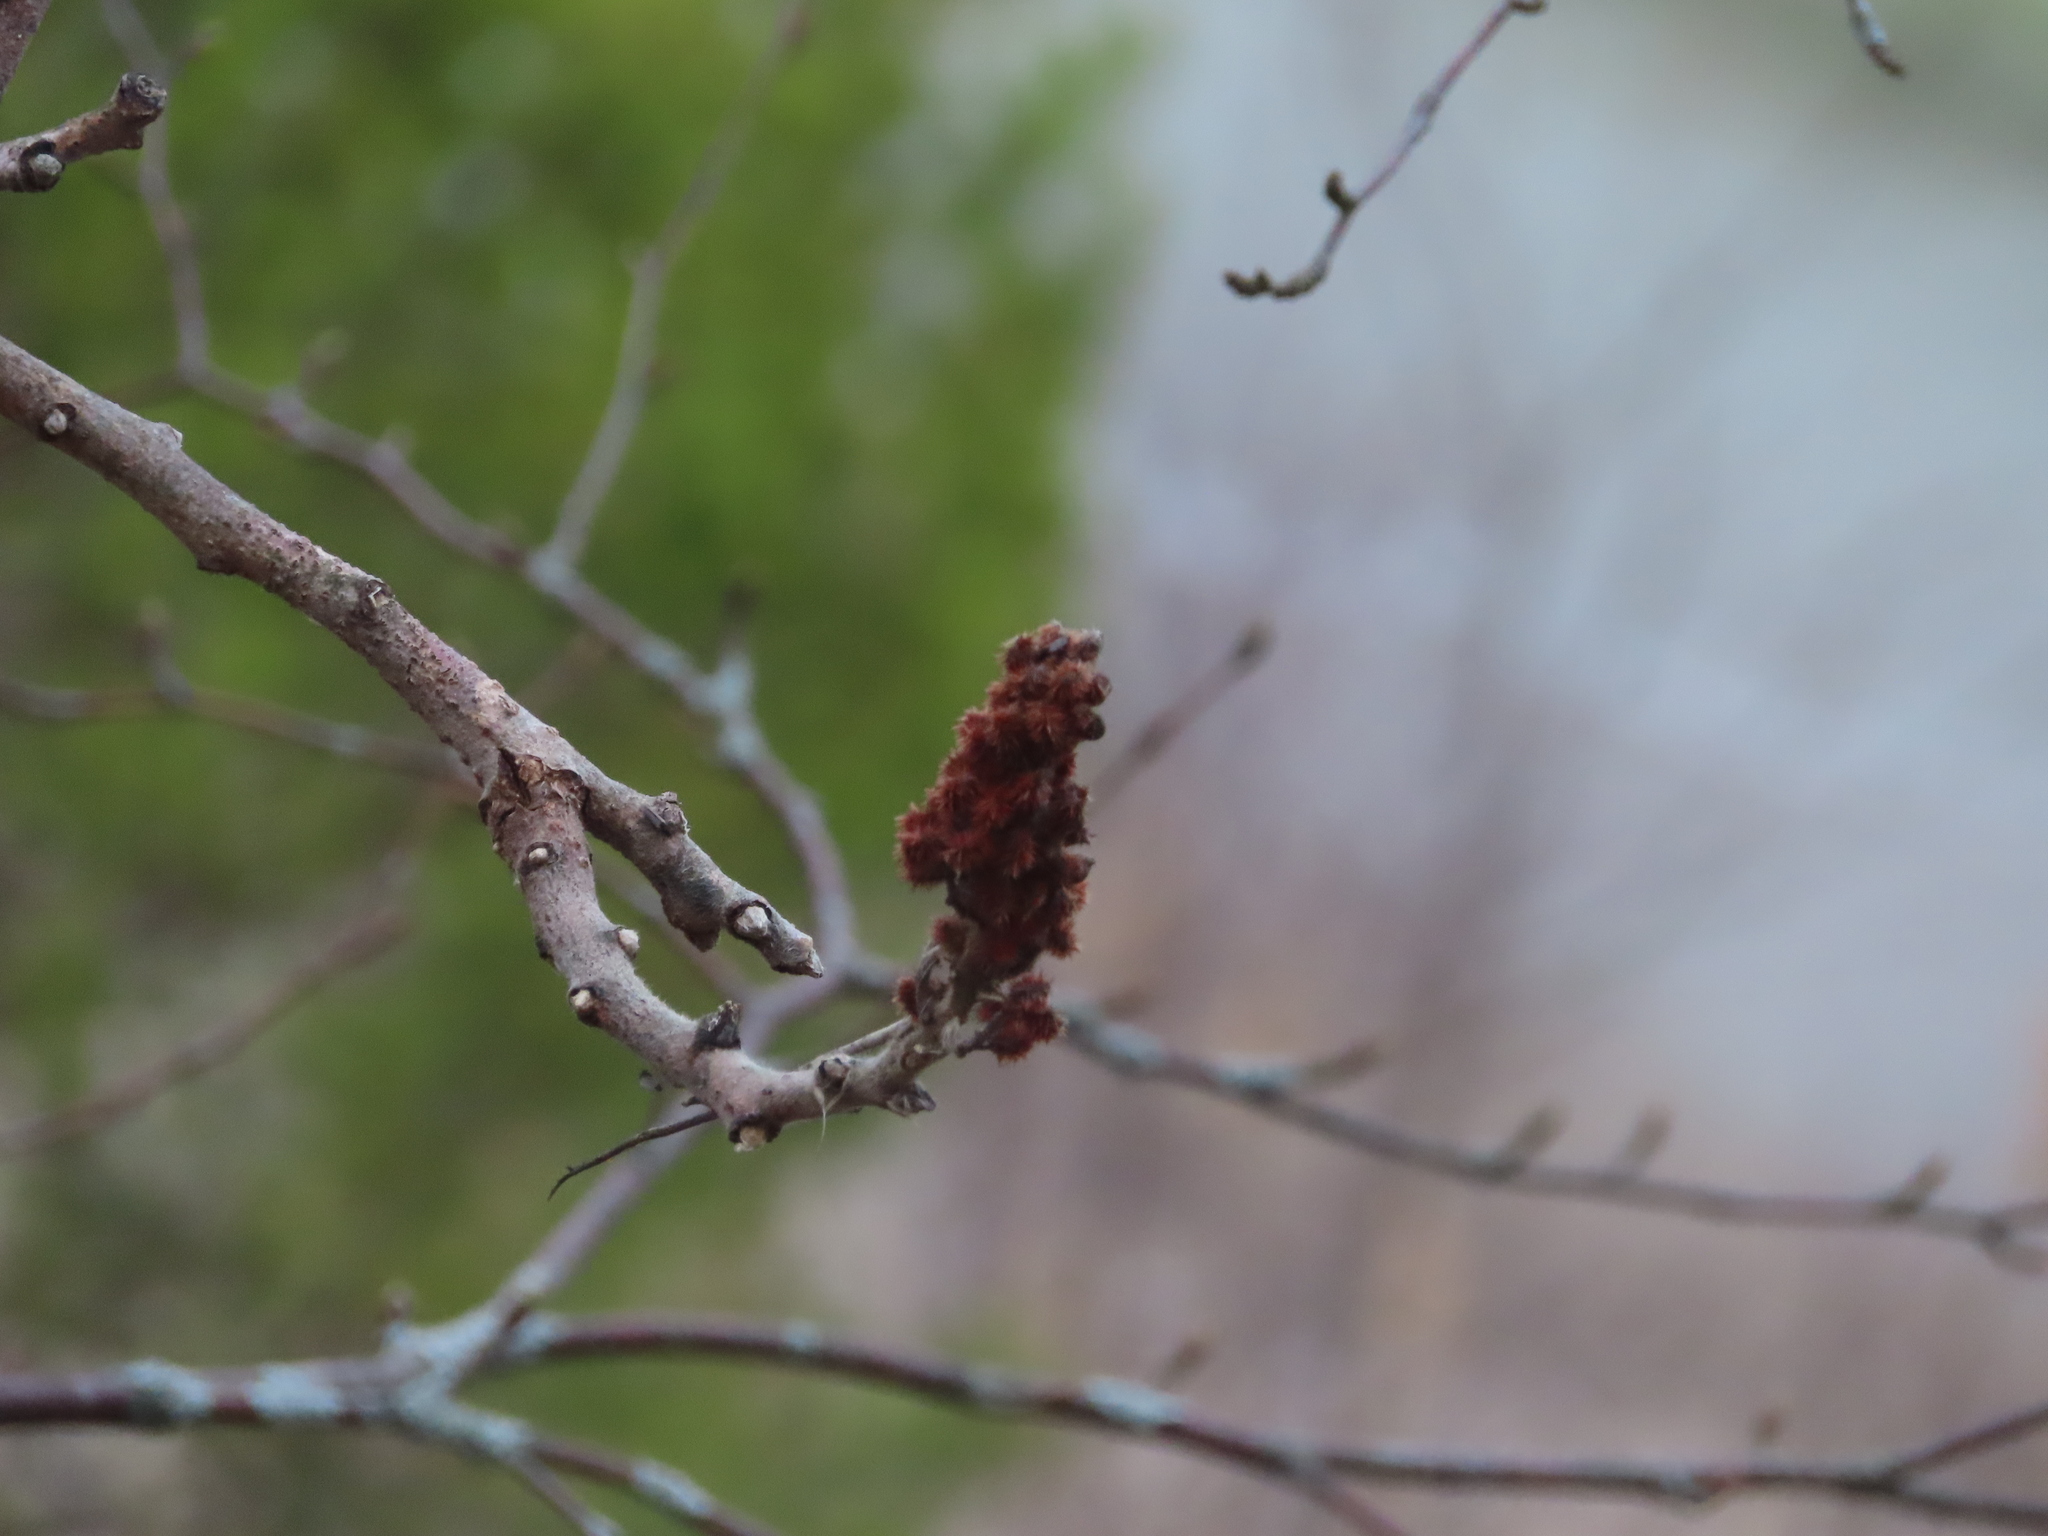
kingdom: Plantae
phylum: Tracheophyta
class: Magnoliopsida
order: Sapindales
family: Anacardiaceae
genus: Rhus
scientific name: Rhus typhina
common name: Staghorn sumac
